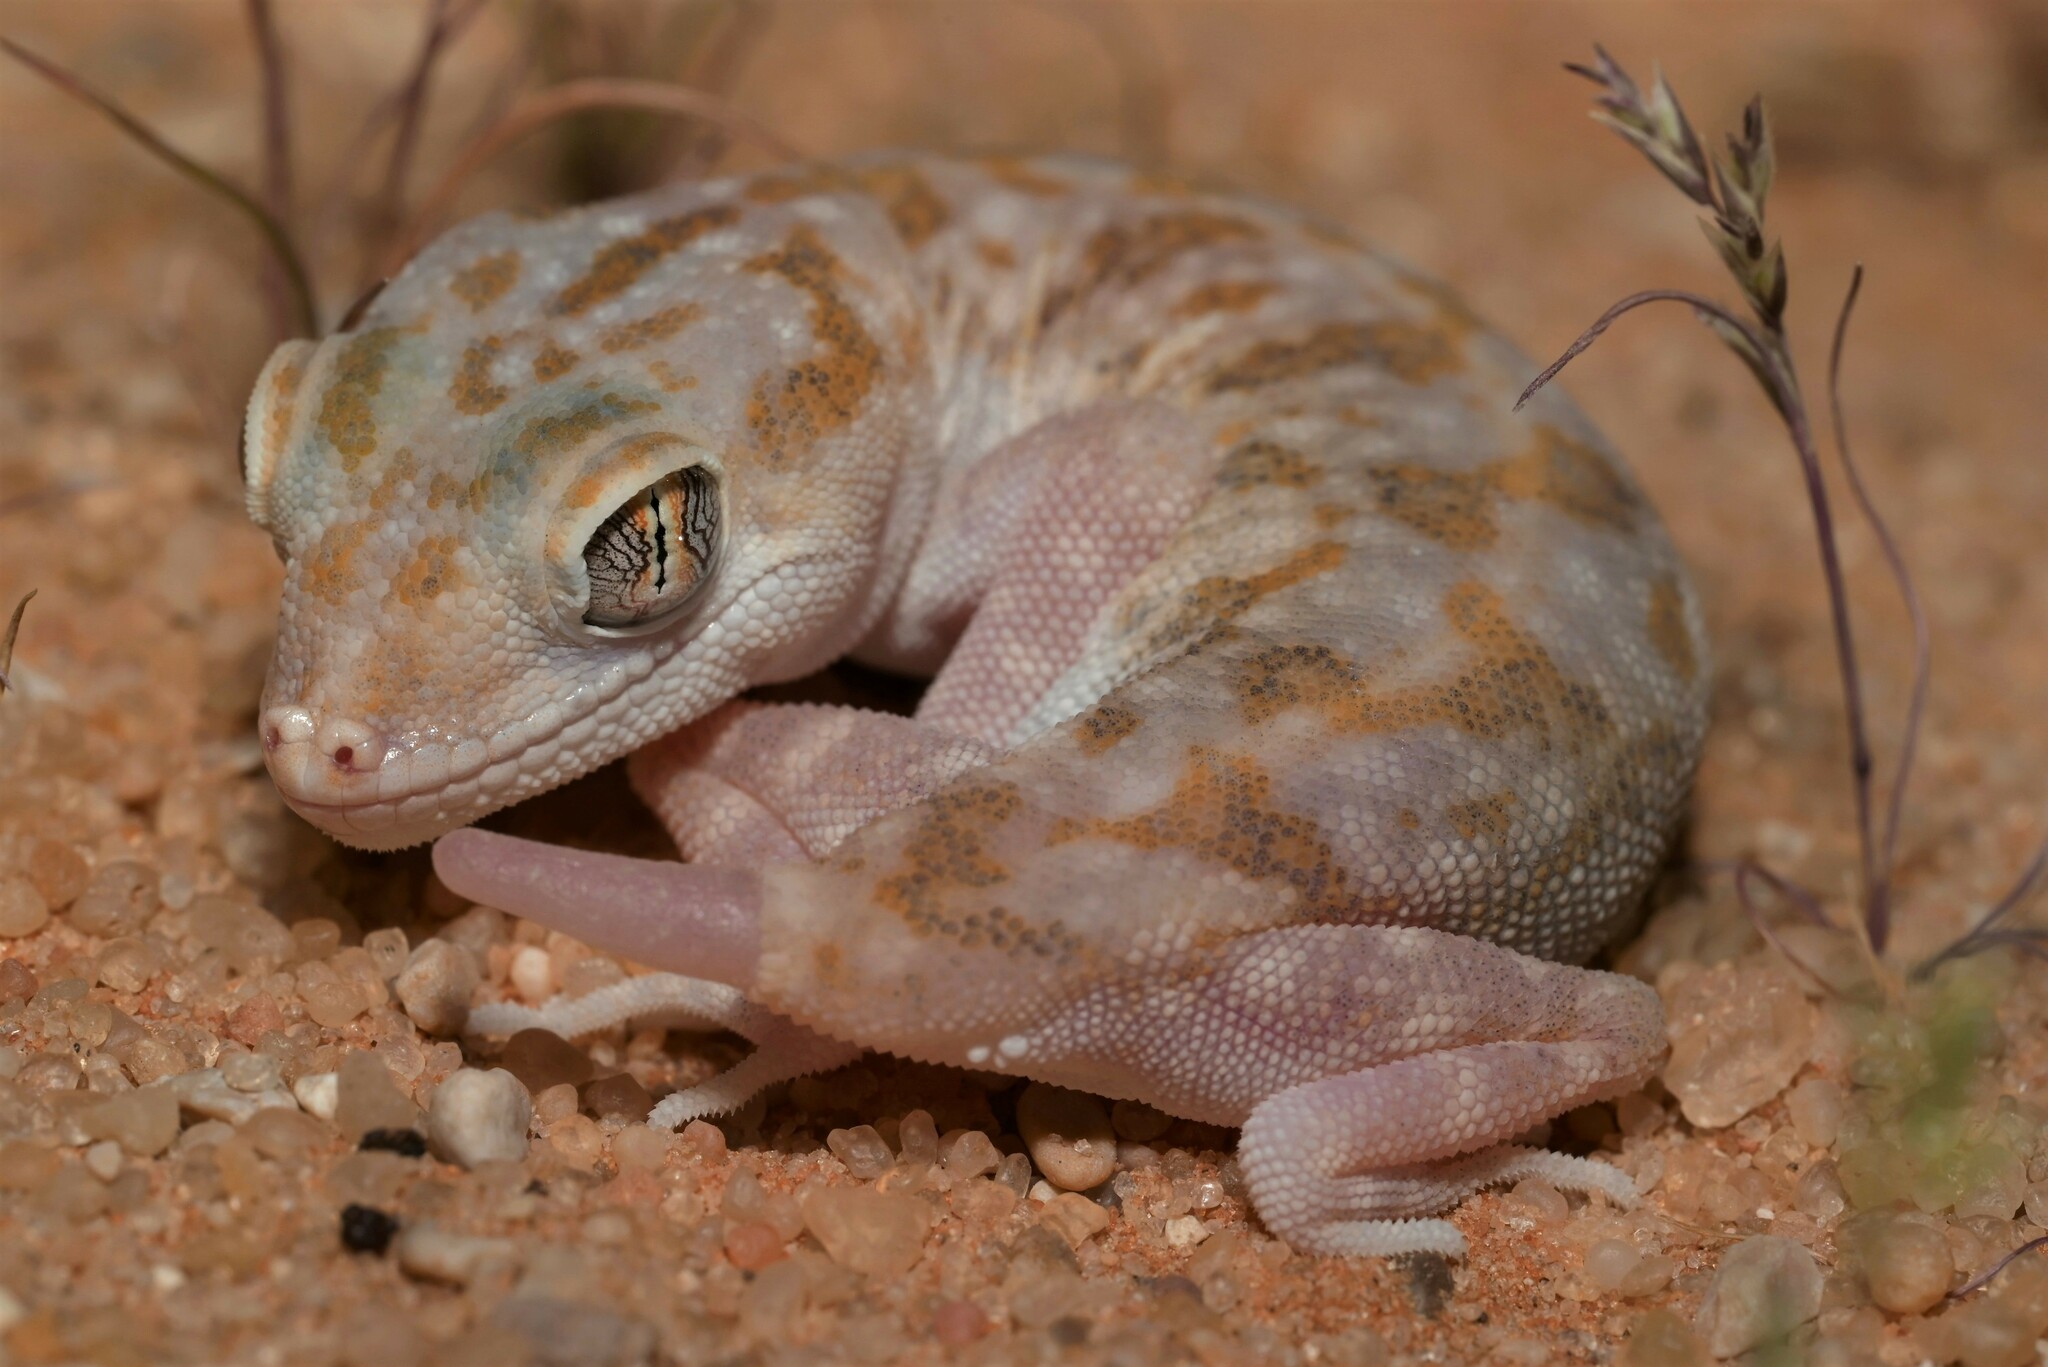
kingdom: Animalia
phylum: Chordata
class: Squamata
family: Gekkonidae
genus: Stenodactylus
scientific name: Stenodactylus slevini
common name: Slevin's sand gecko
